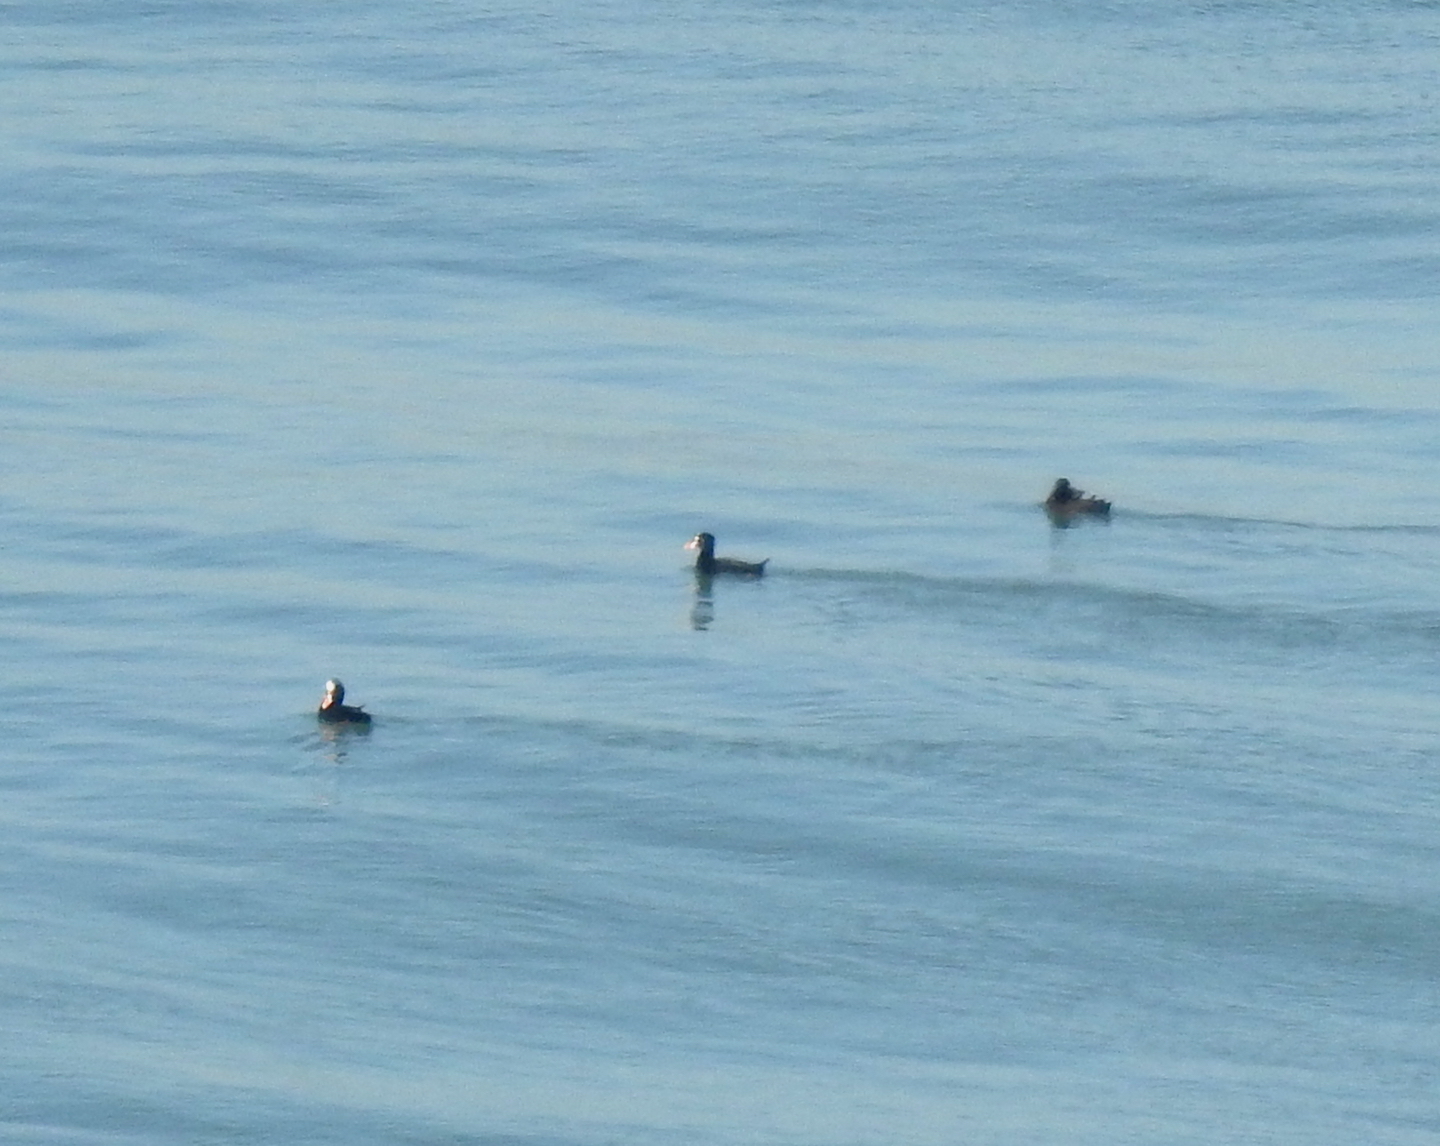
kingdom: Animalia
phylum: Chordata
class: Aves
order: Anseriformes
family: Anatidae
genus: Melanitta
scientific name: Melanitta perspicillata
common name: Surf scoter
